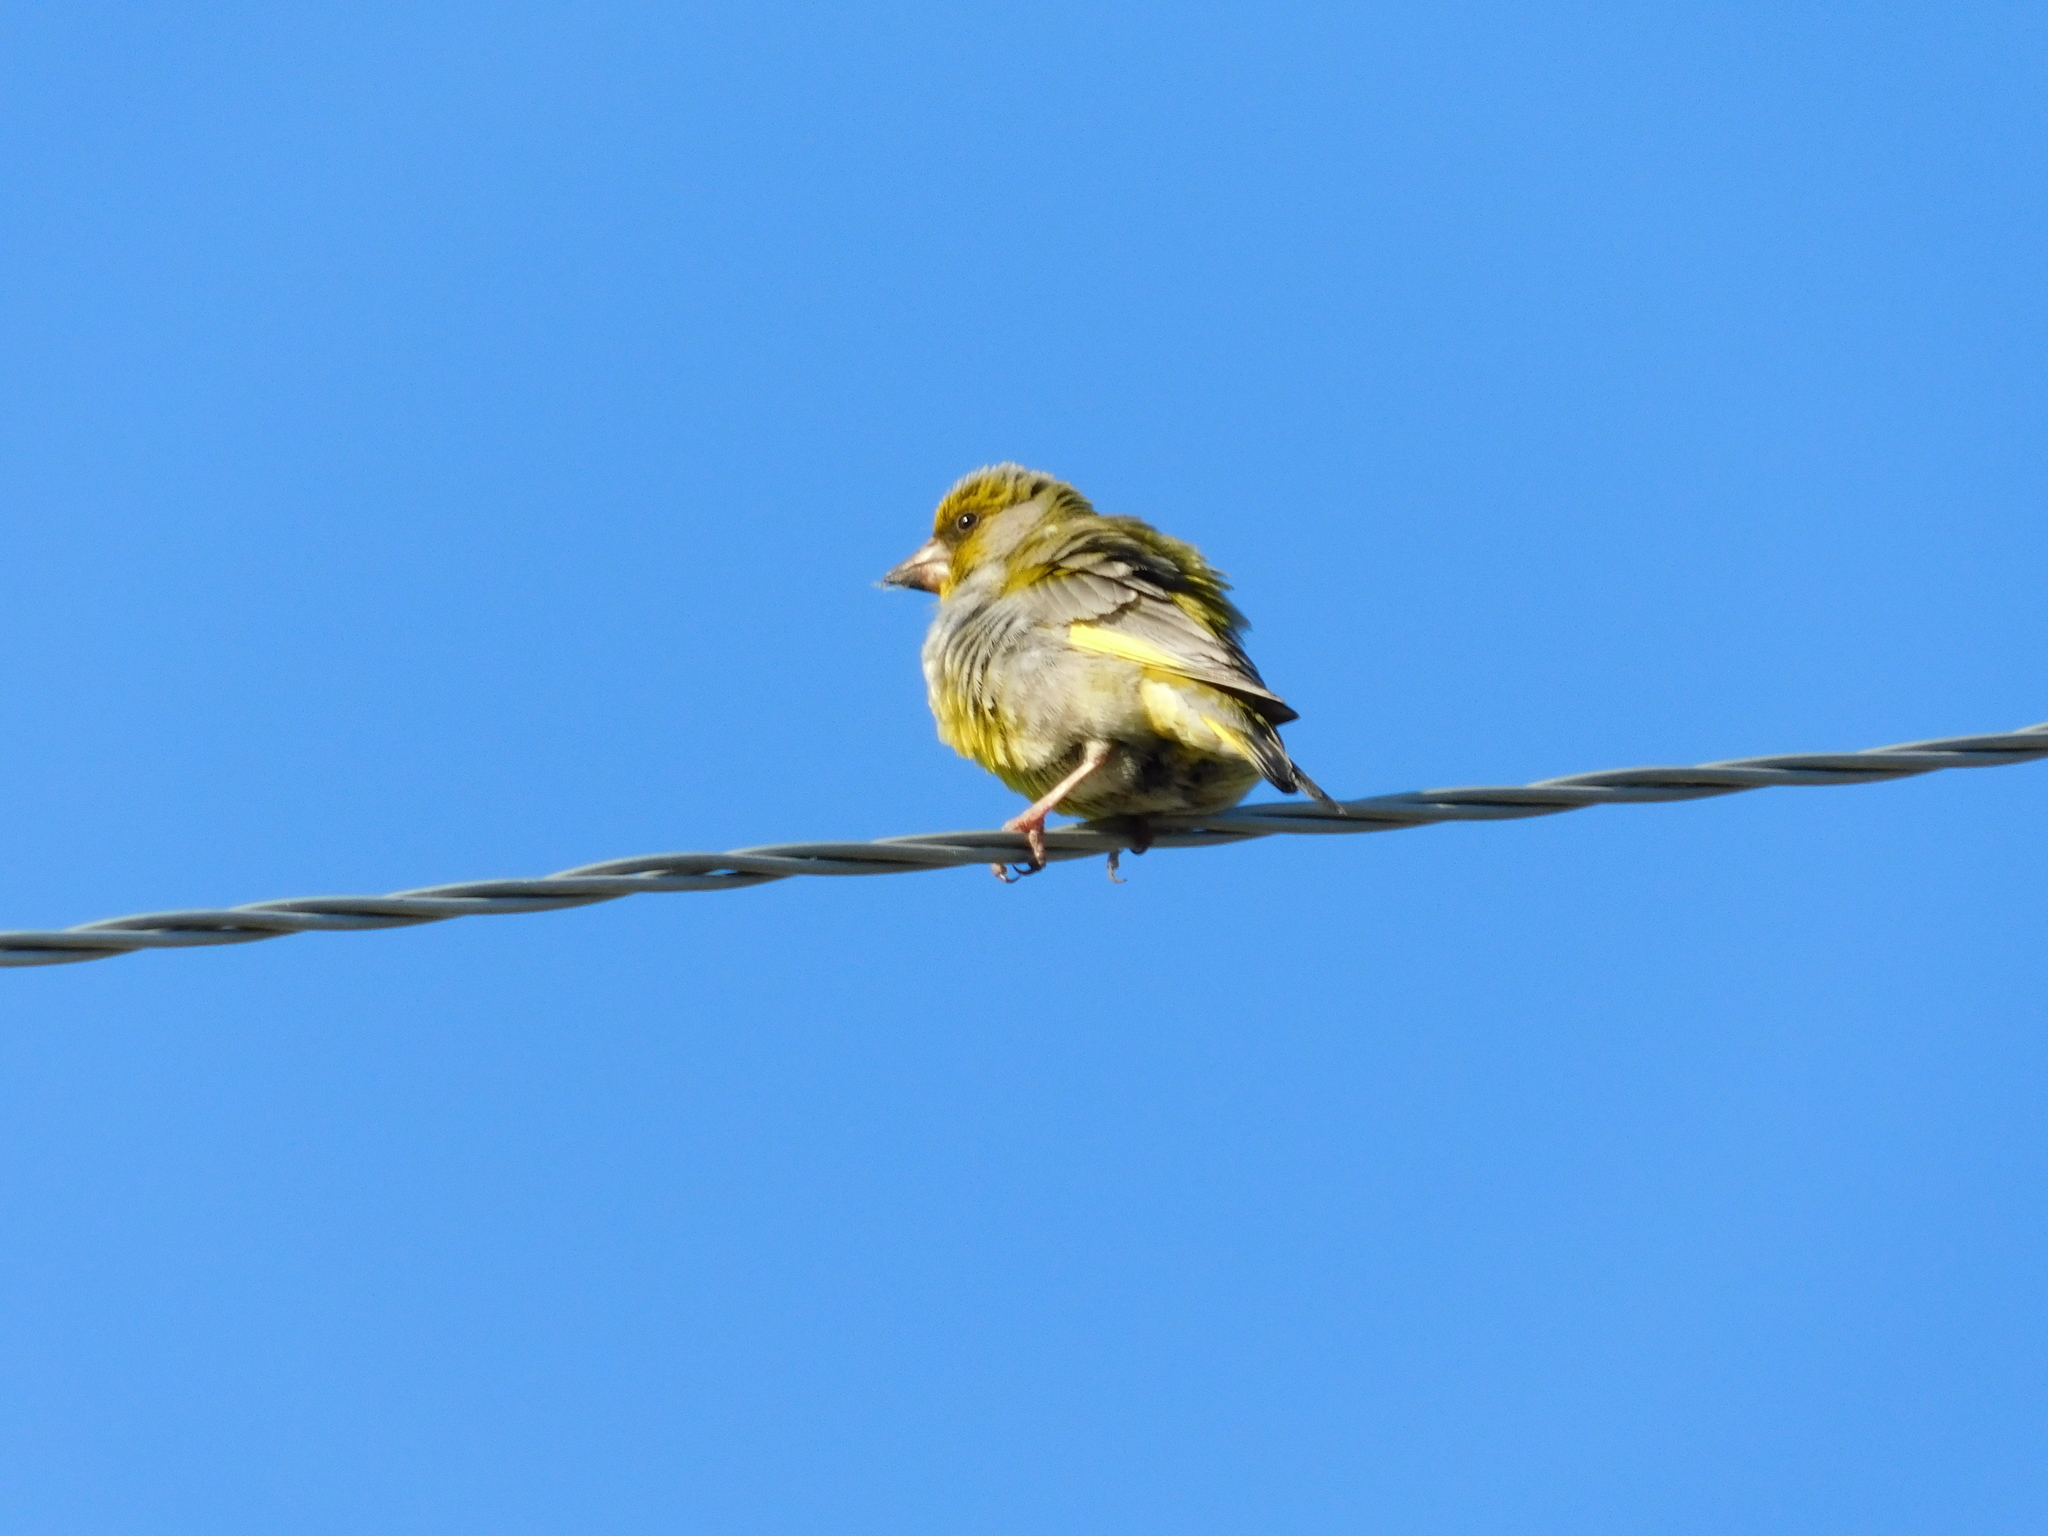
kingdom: Plantae
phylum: Tracheophyta
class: Liliopsida
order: Poales
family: Poaceae
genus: Chloris
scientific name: Chloris chloris
